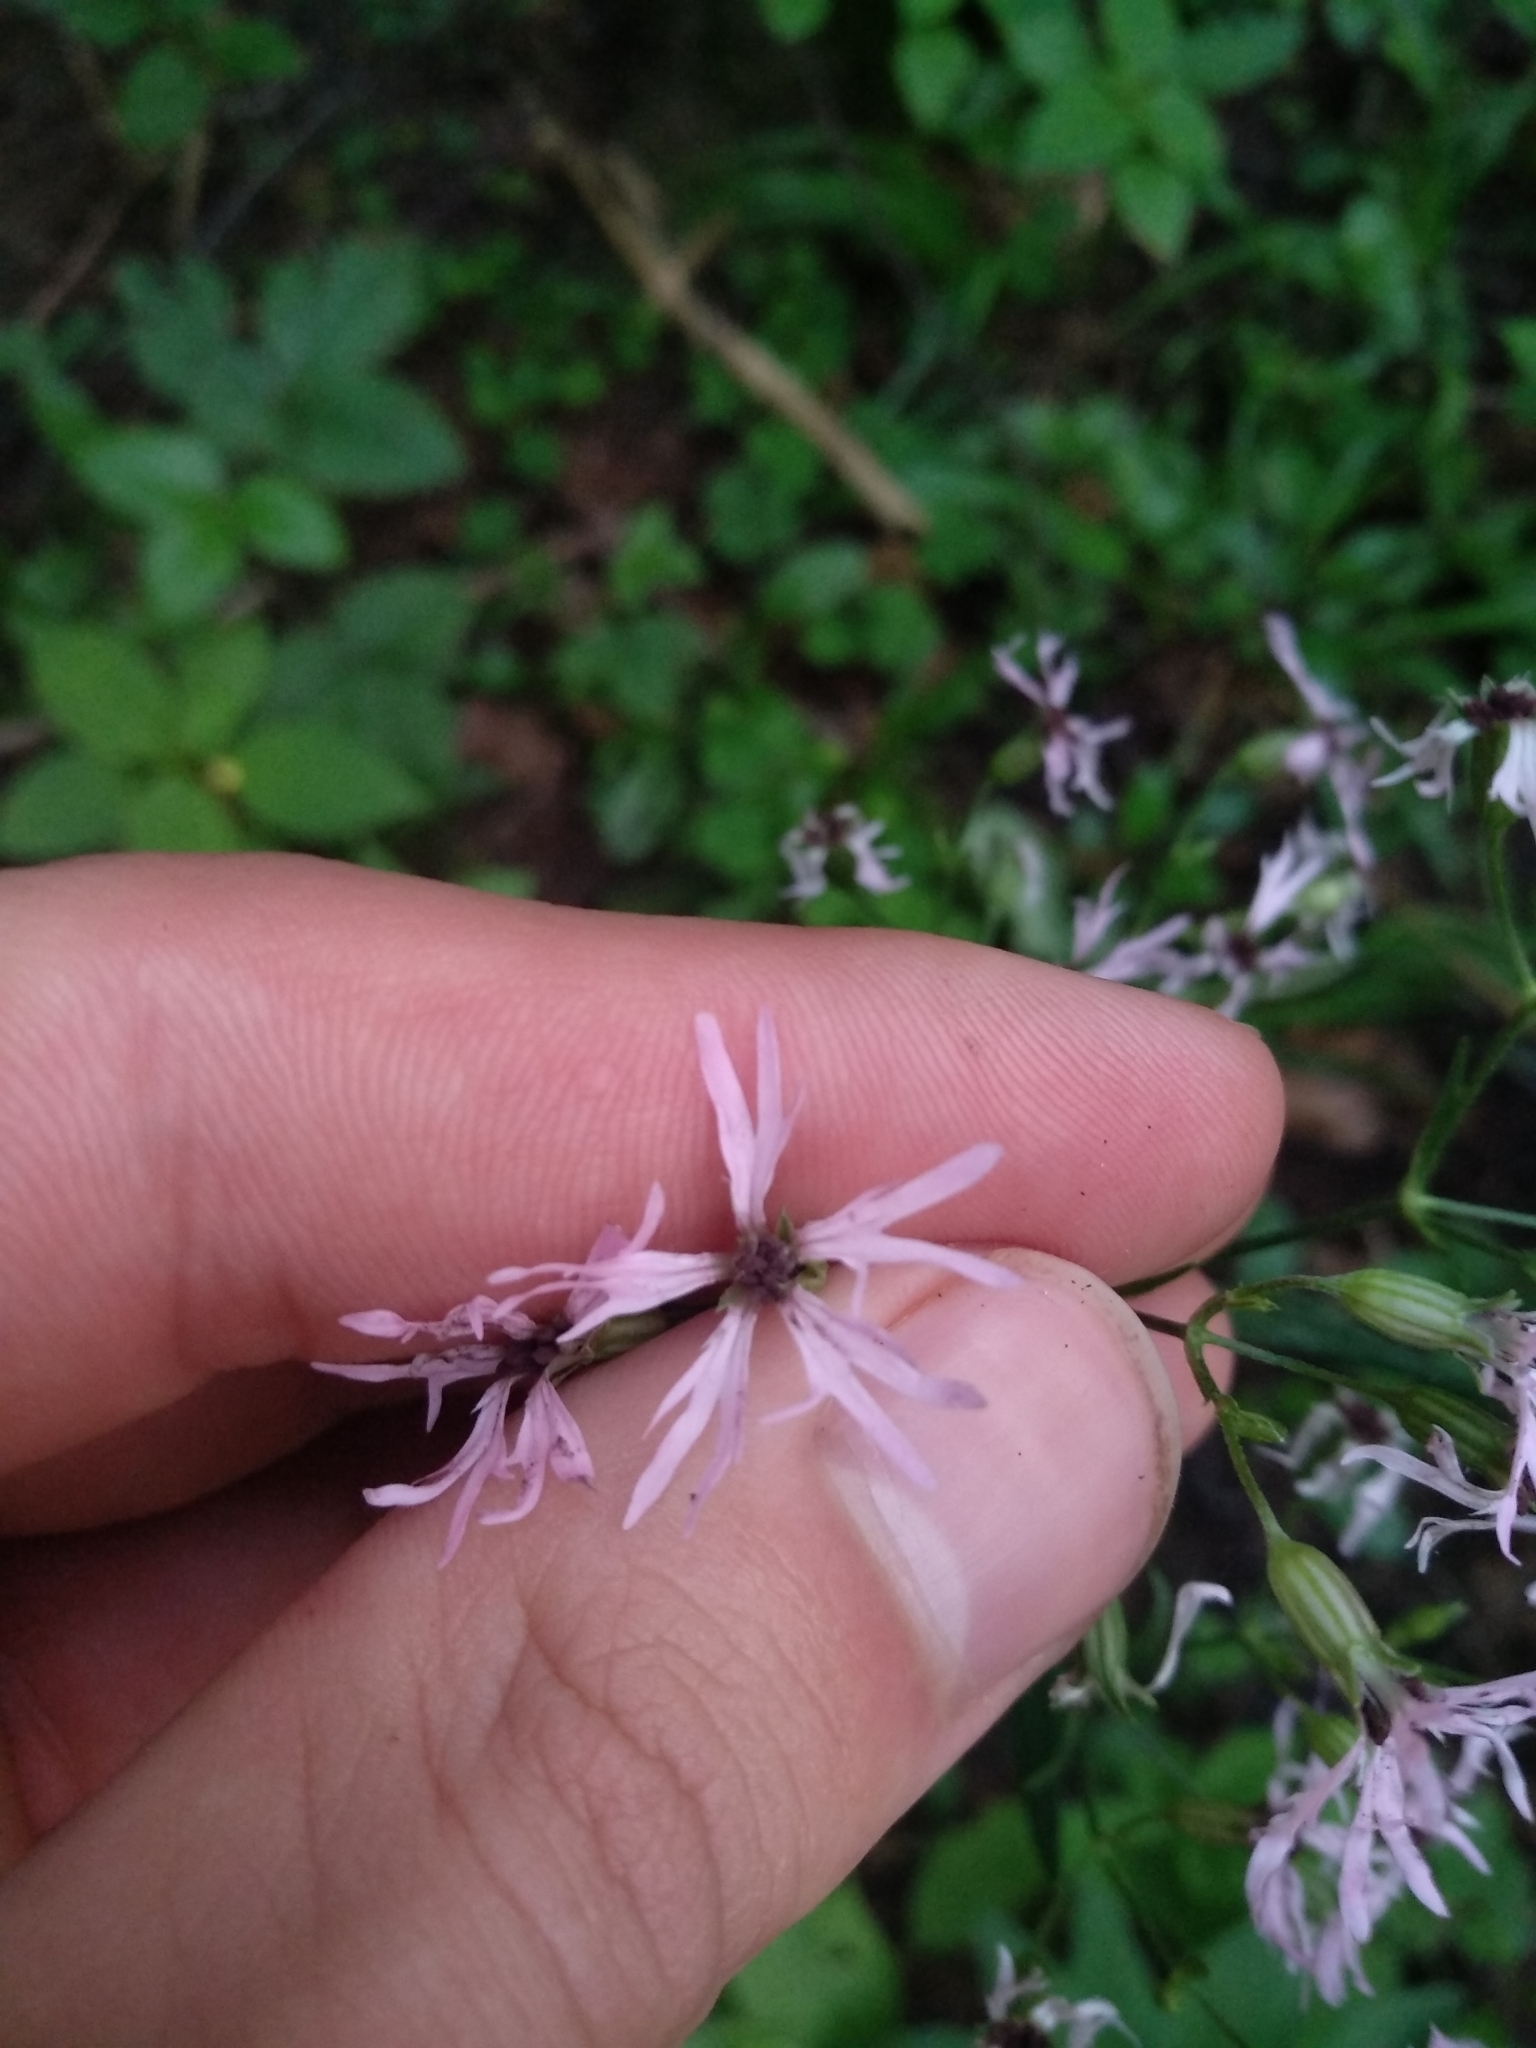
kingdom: Plantae
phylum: Tracheophyta
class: Magnoliopsida
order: Caryophyllales
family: Caryophyllaceae
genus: Silene
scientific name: Silene flos-cuculi
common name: Ragged-robin
